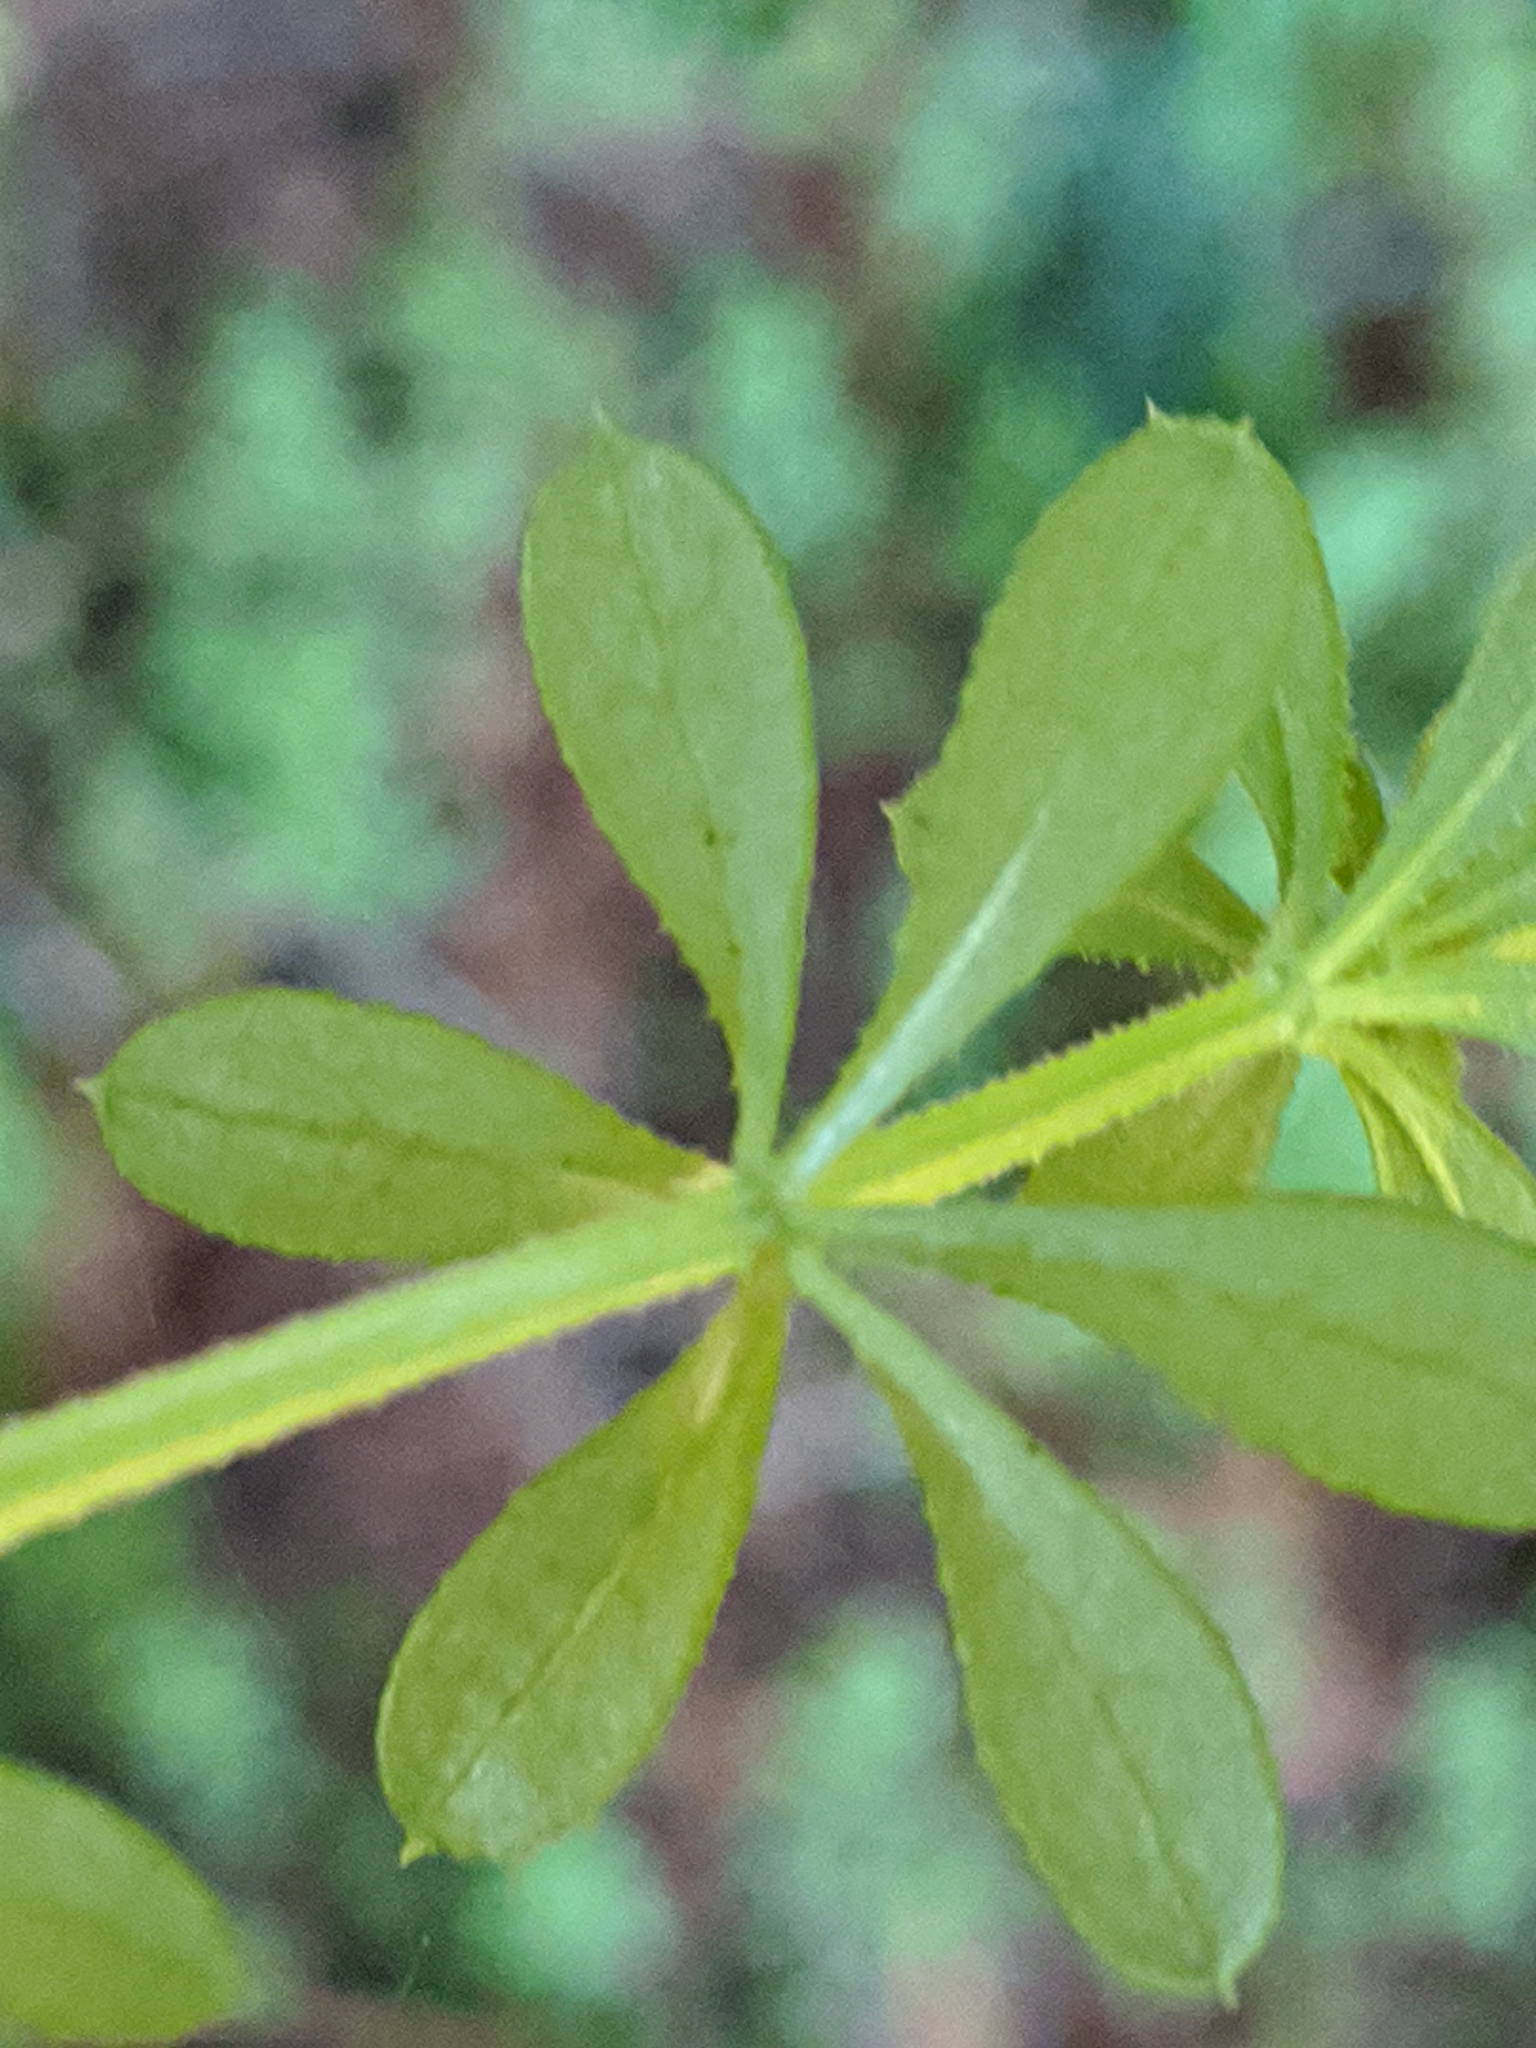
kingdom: Plantae
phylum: Tracheophyta
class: Magnoliopsida
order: Gentianales
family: Rubiaceae
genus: Galium
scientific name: Galium aparine
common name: Cleavers
